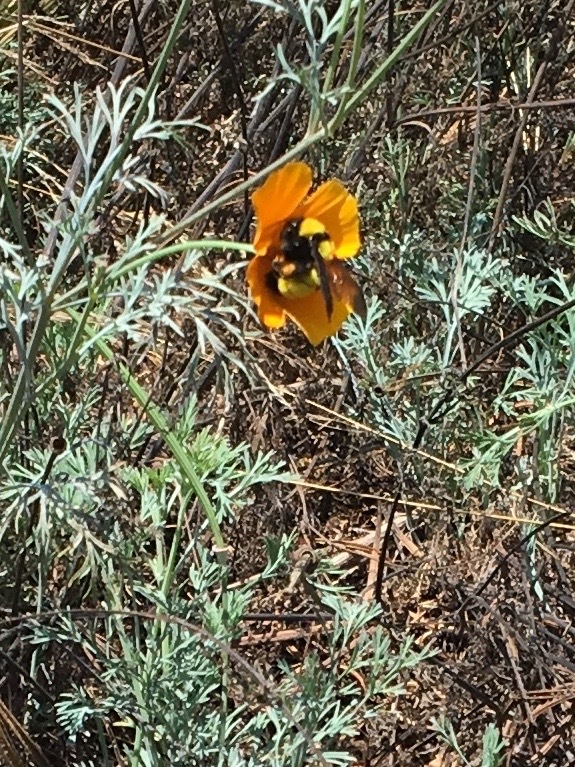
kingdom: Animalia
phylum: Arthropoda
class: Insecta
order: Hymenoptera
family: Apidae
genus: Bombus
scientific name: Bombus sonorus
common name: Sonoran bumble bee
